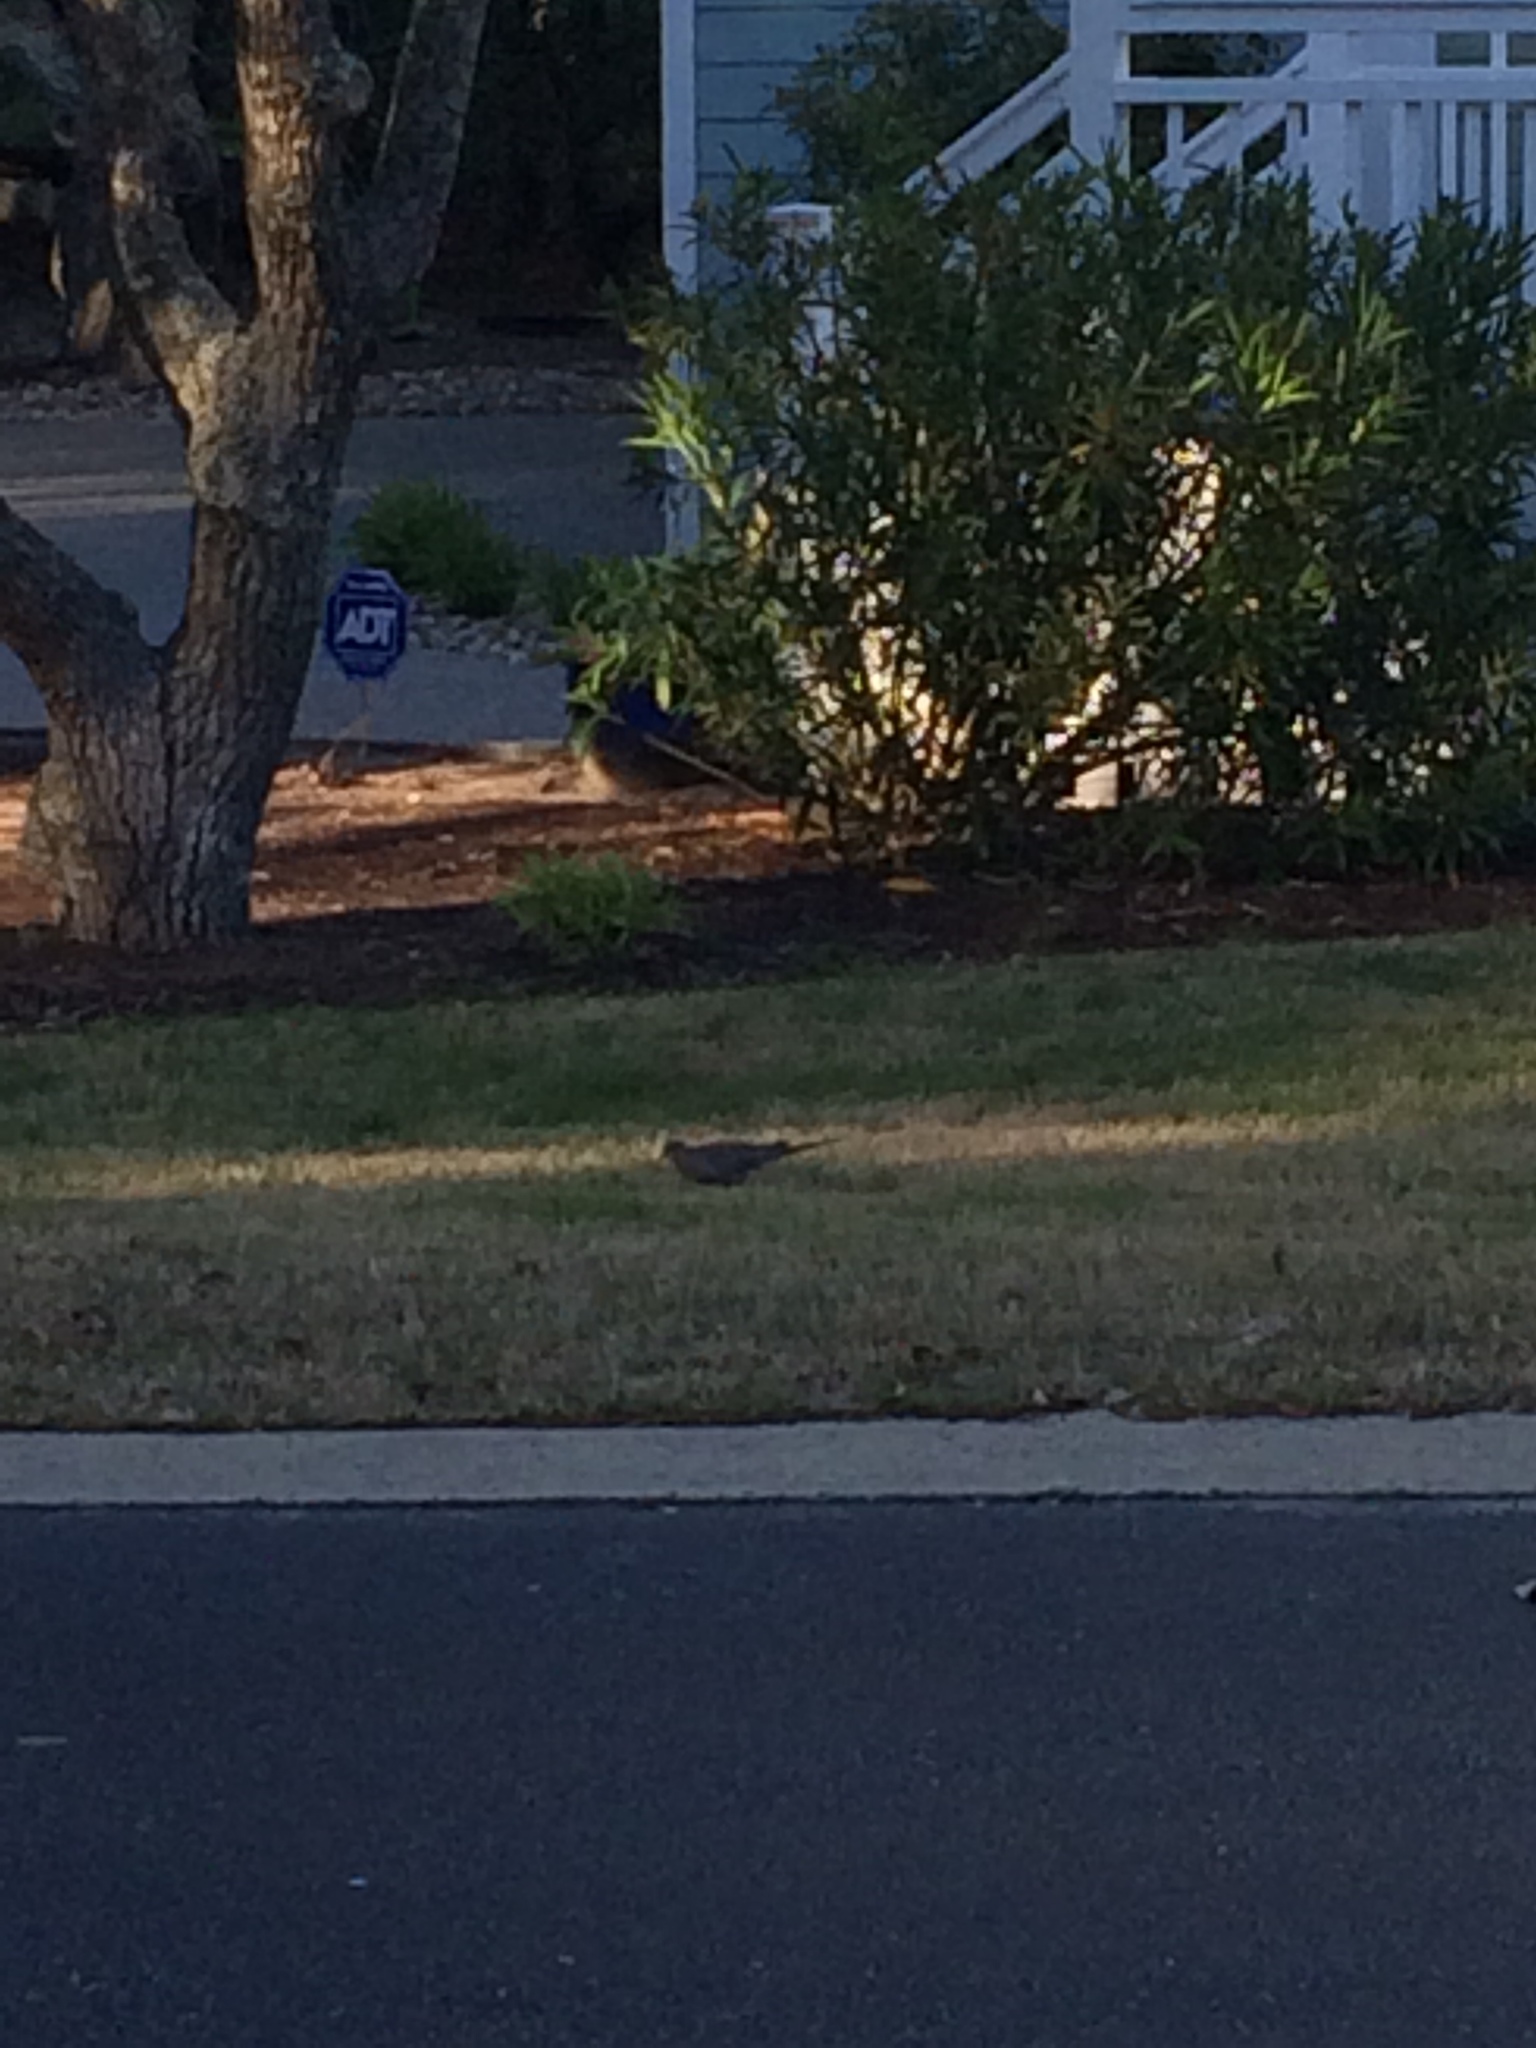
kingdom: Animalia
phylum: Chordata
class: Aves
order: Columbiformes
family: Columbidae
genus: Zenaida
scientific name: Zenaida macroura
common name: Mourning dove
